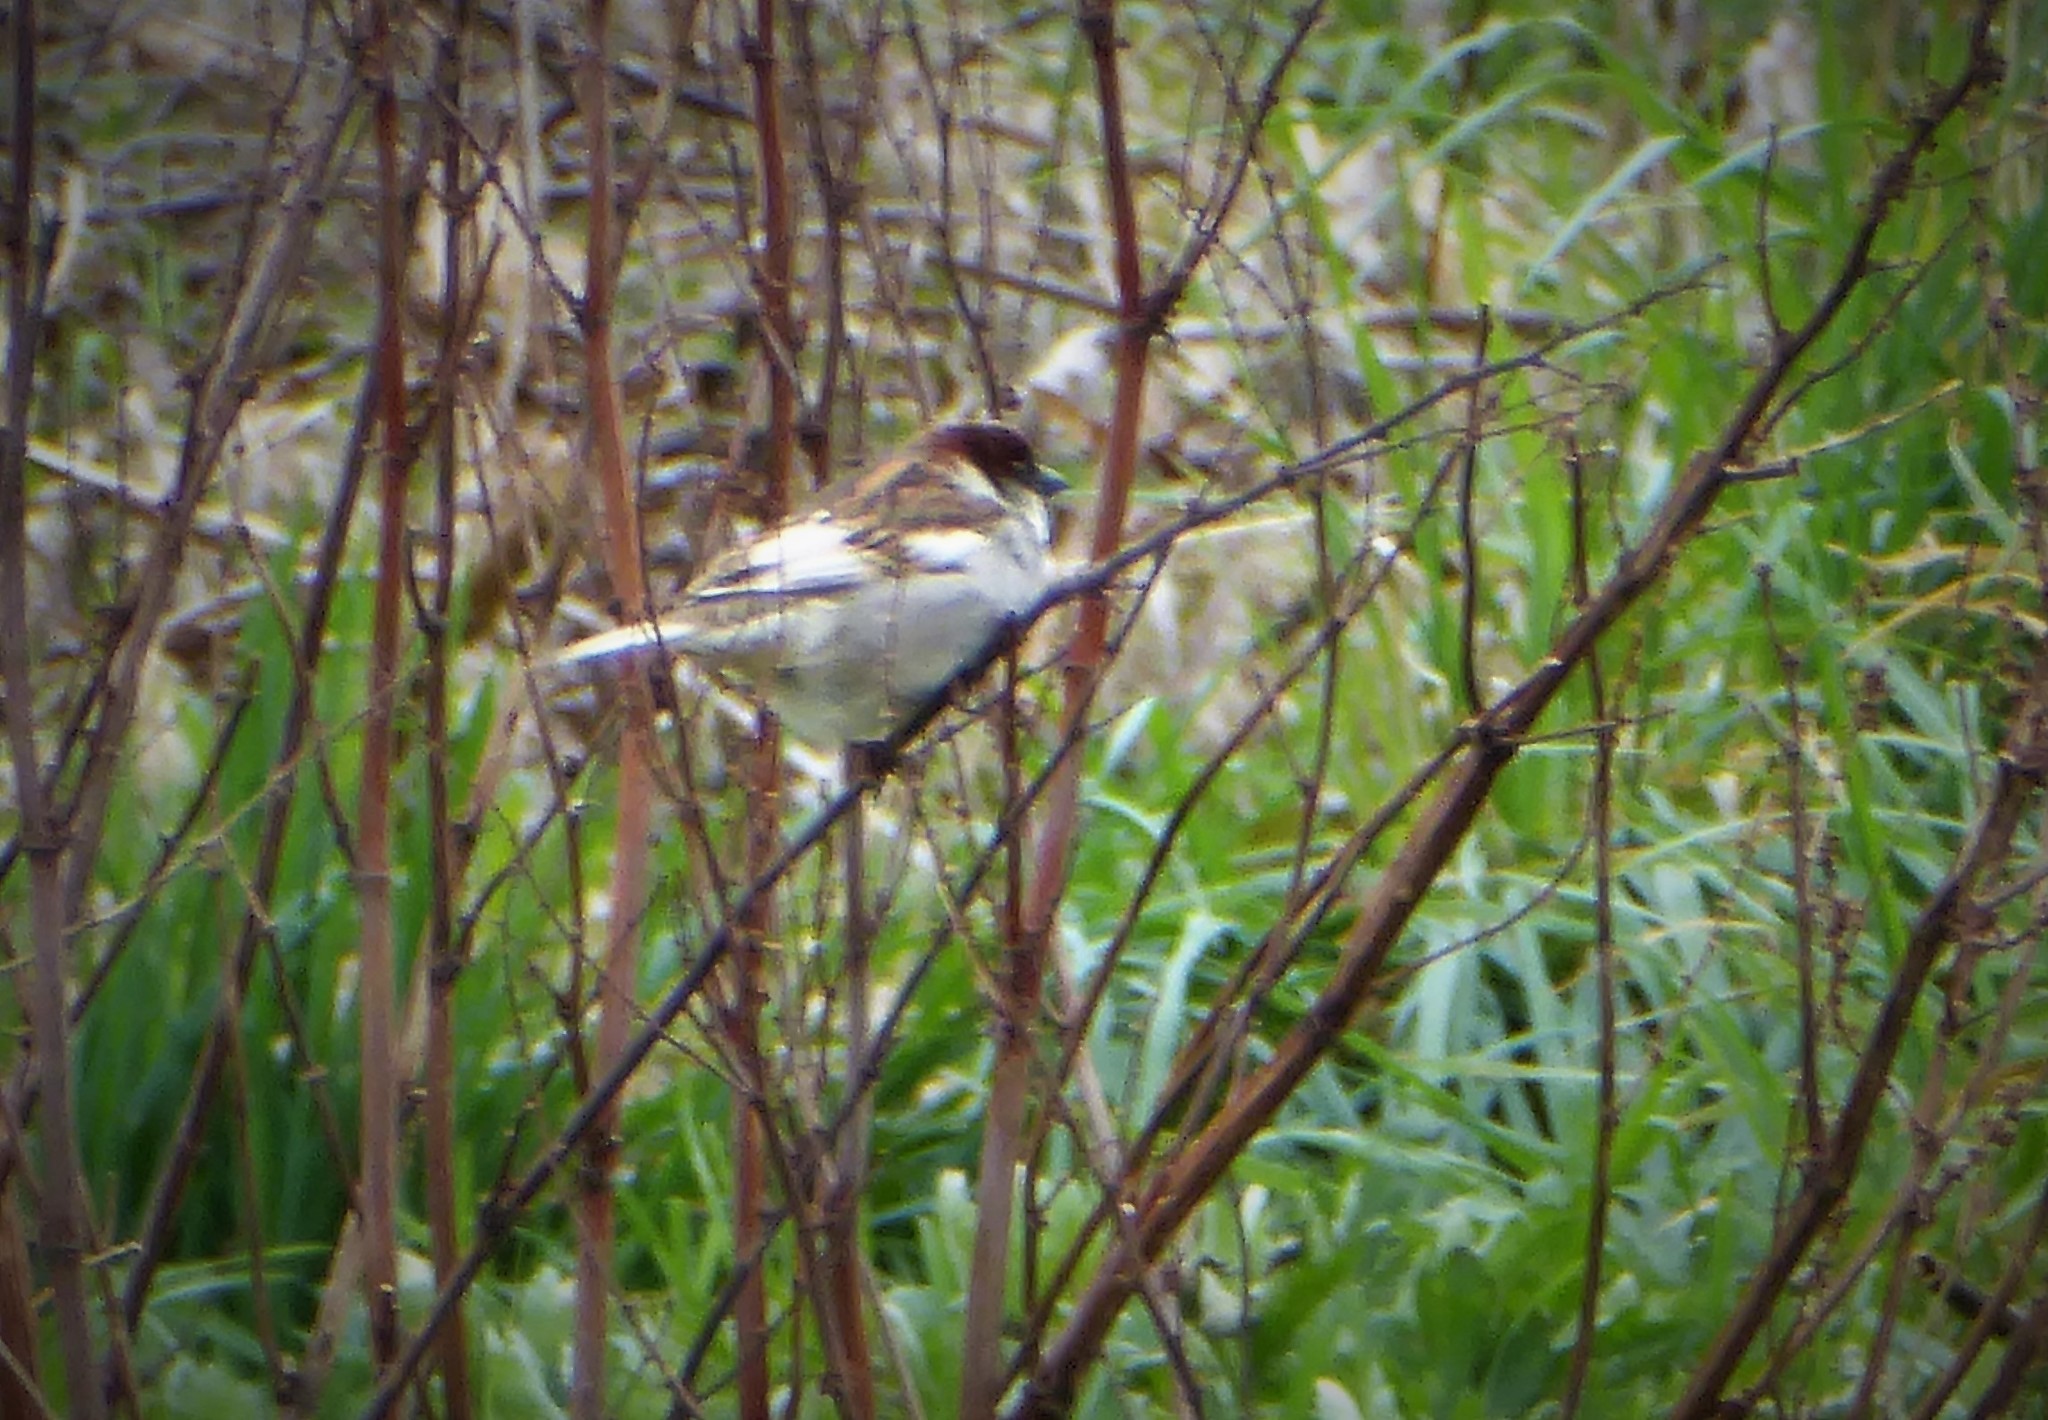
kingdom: Animalia
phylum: Chordata
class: Aves
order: Passeriformes
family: Passeridae
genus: Passer
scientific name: Passer domesticus
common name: House sparrow
